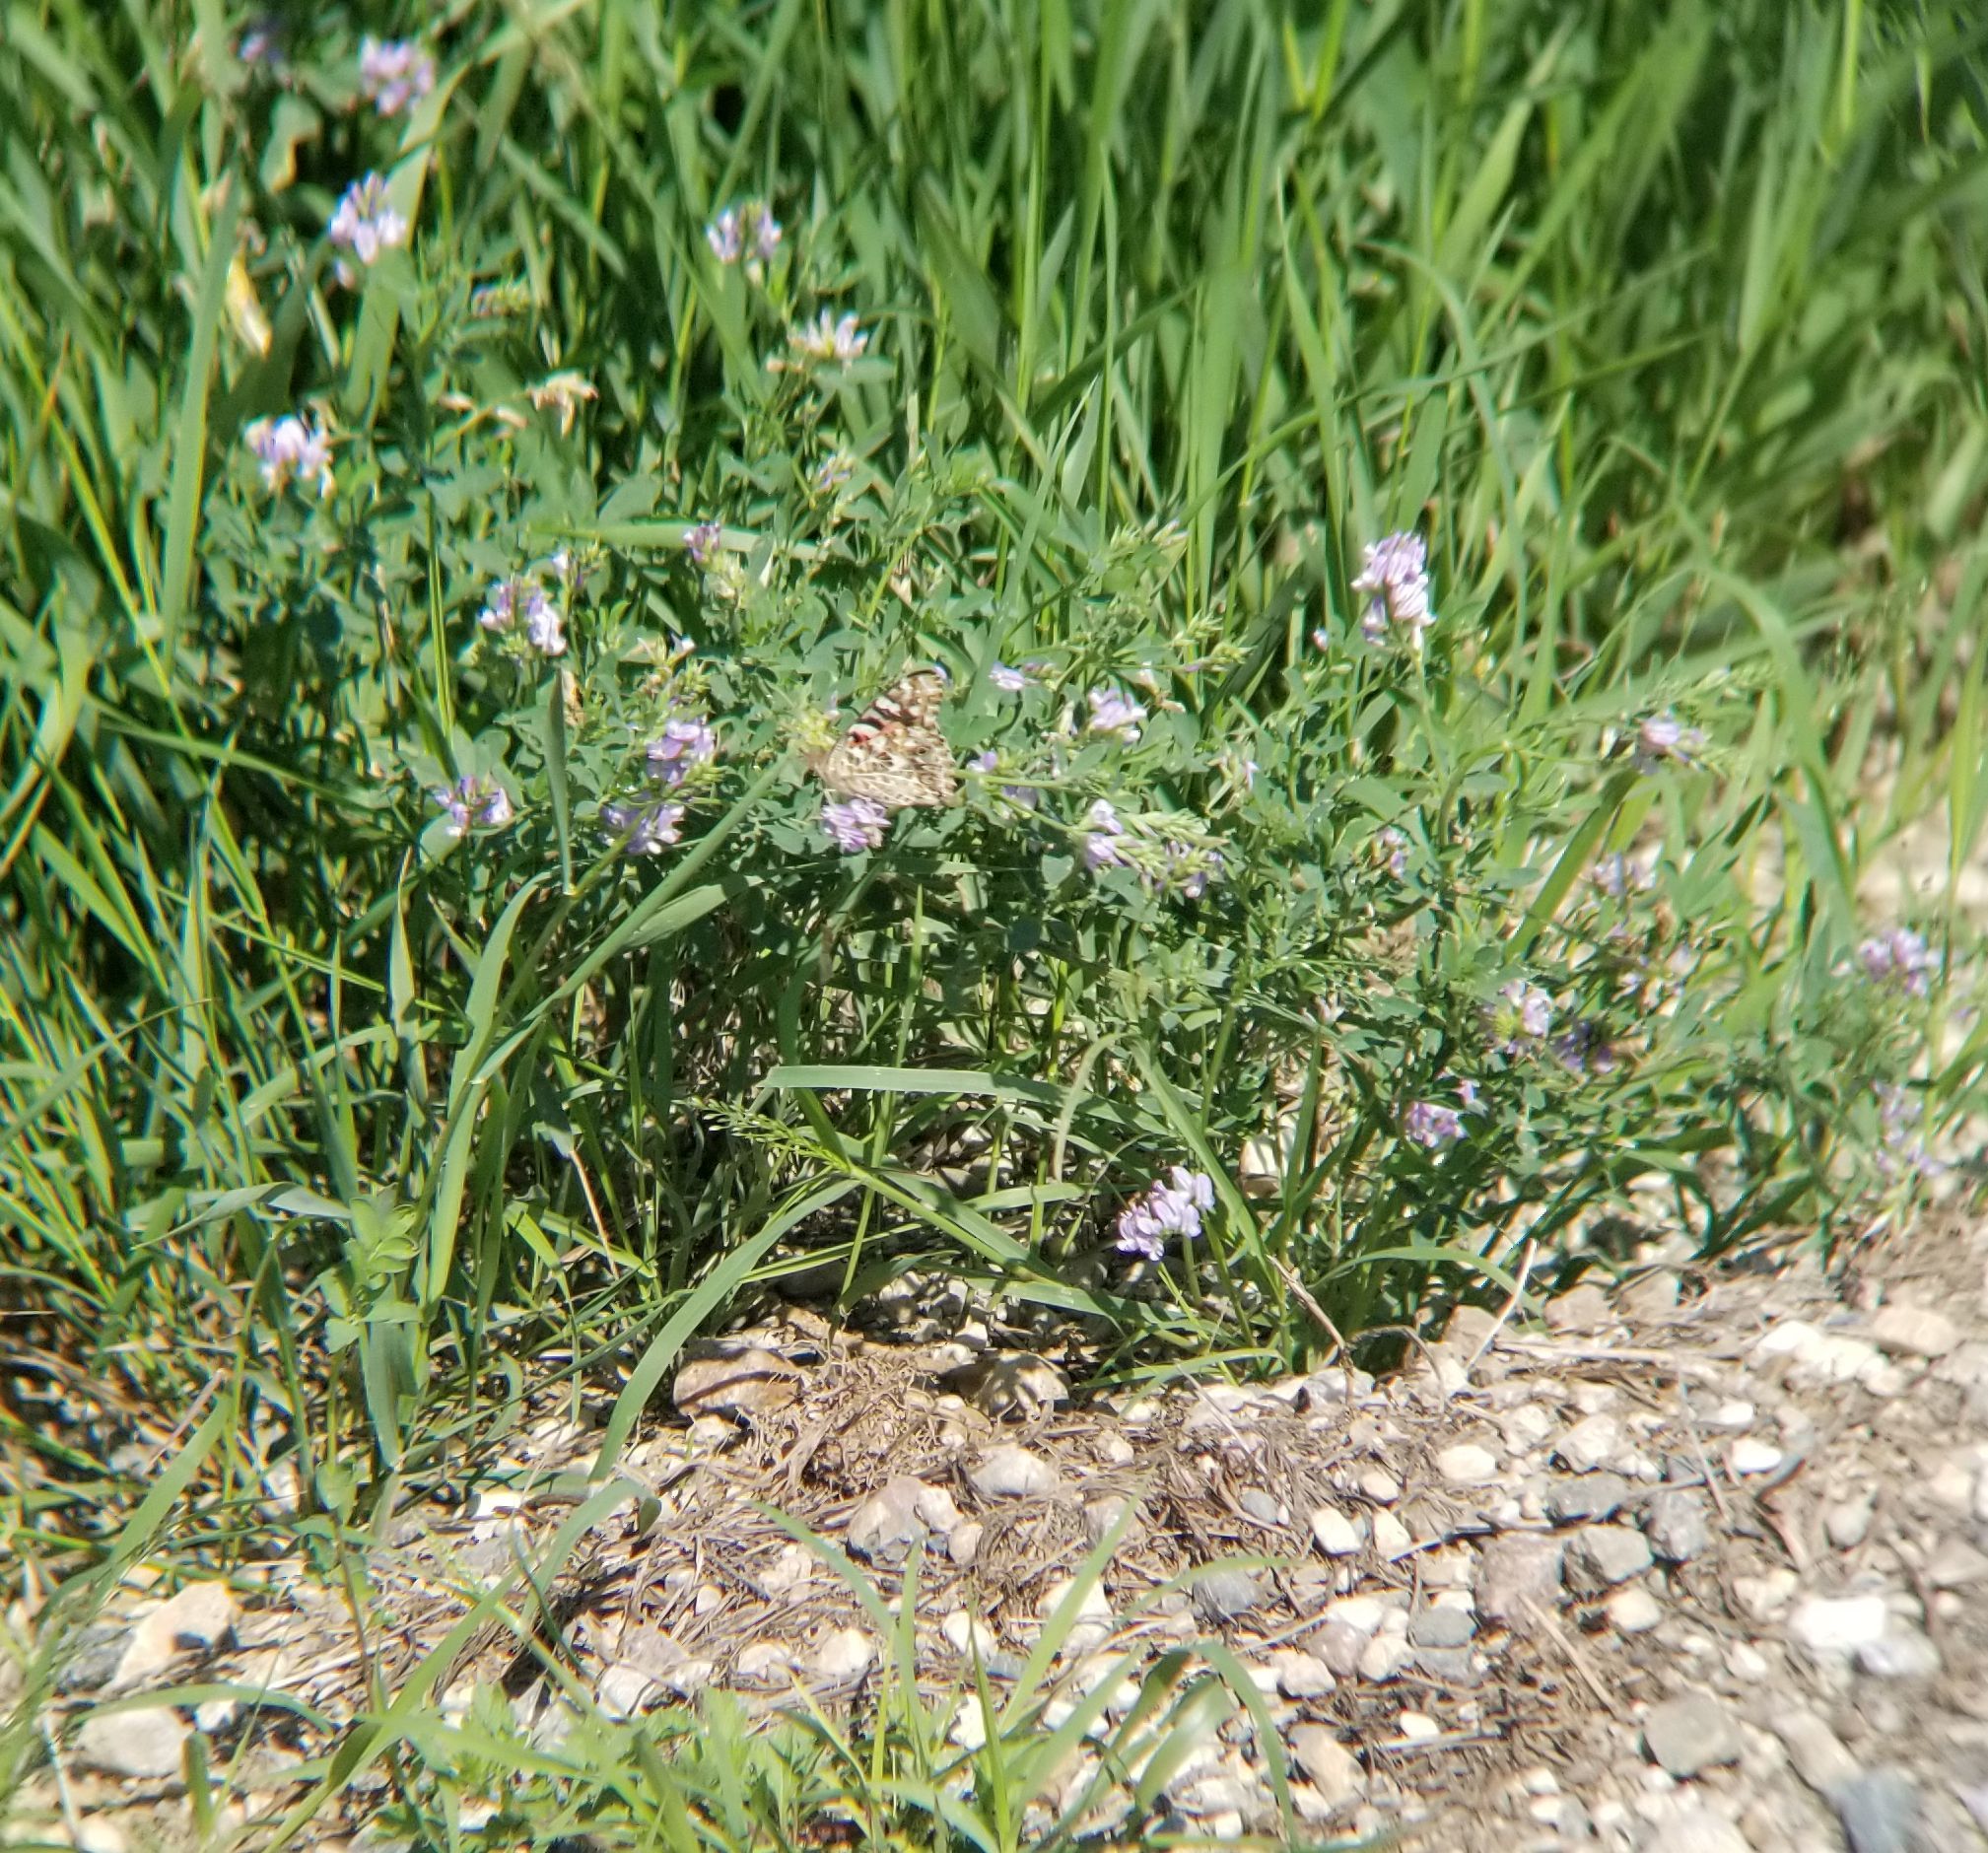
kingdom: Animalia
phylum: Arthropoda
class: Insecta
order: Lepidoptera
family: Nymphalidae
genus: Vanessa
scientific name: Vanessa cardui
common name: Painted lady
